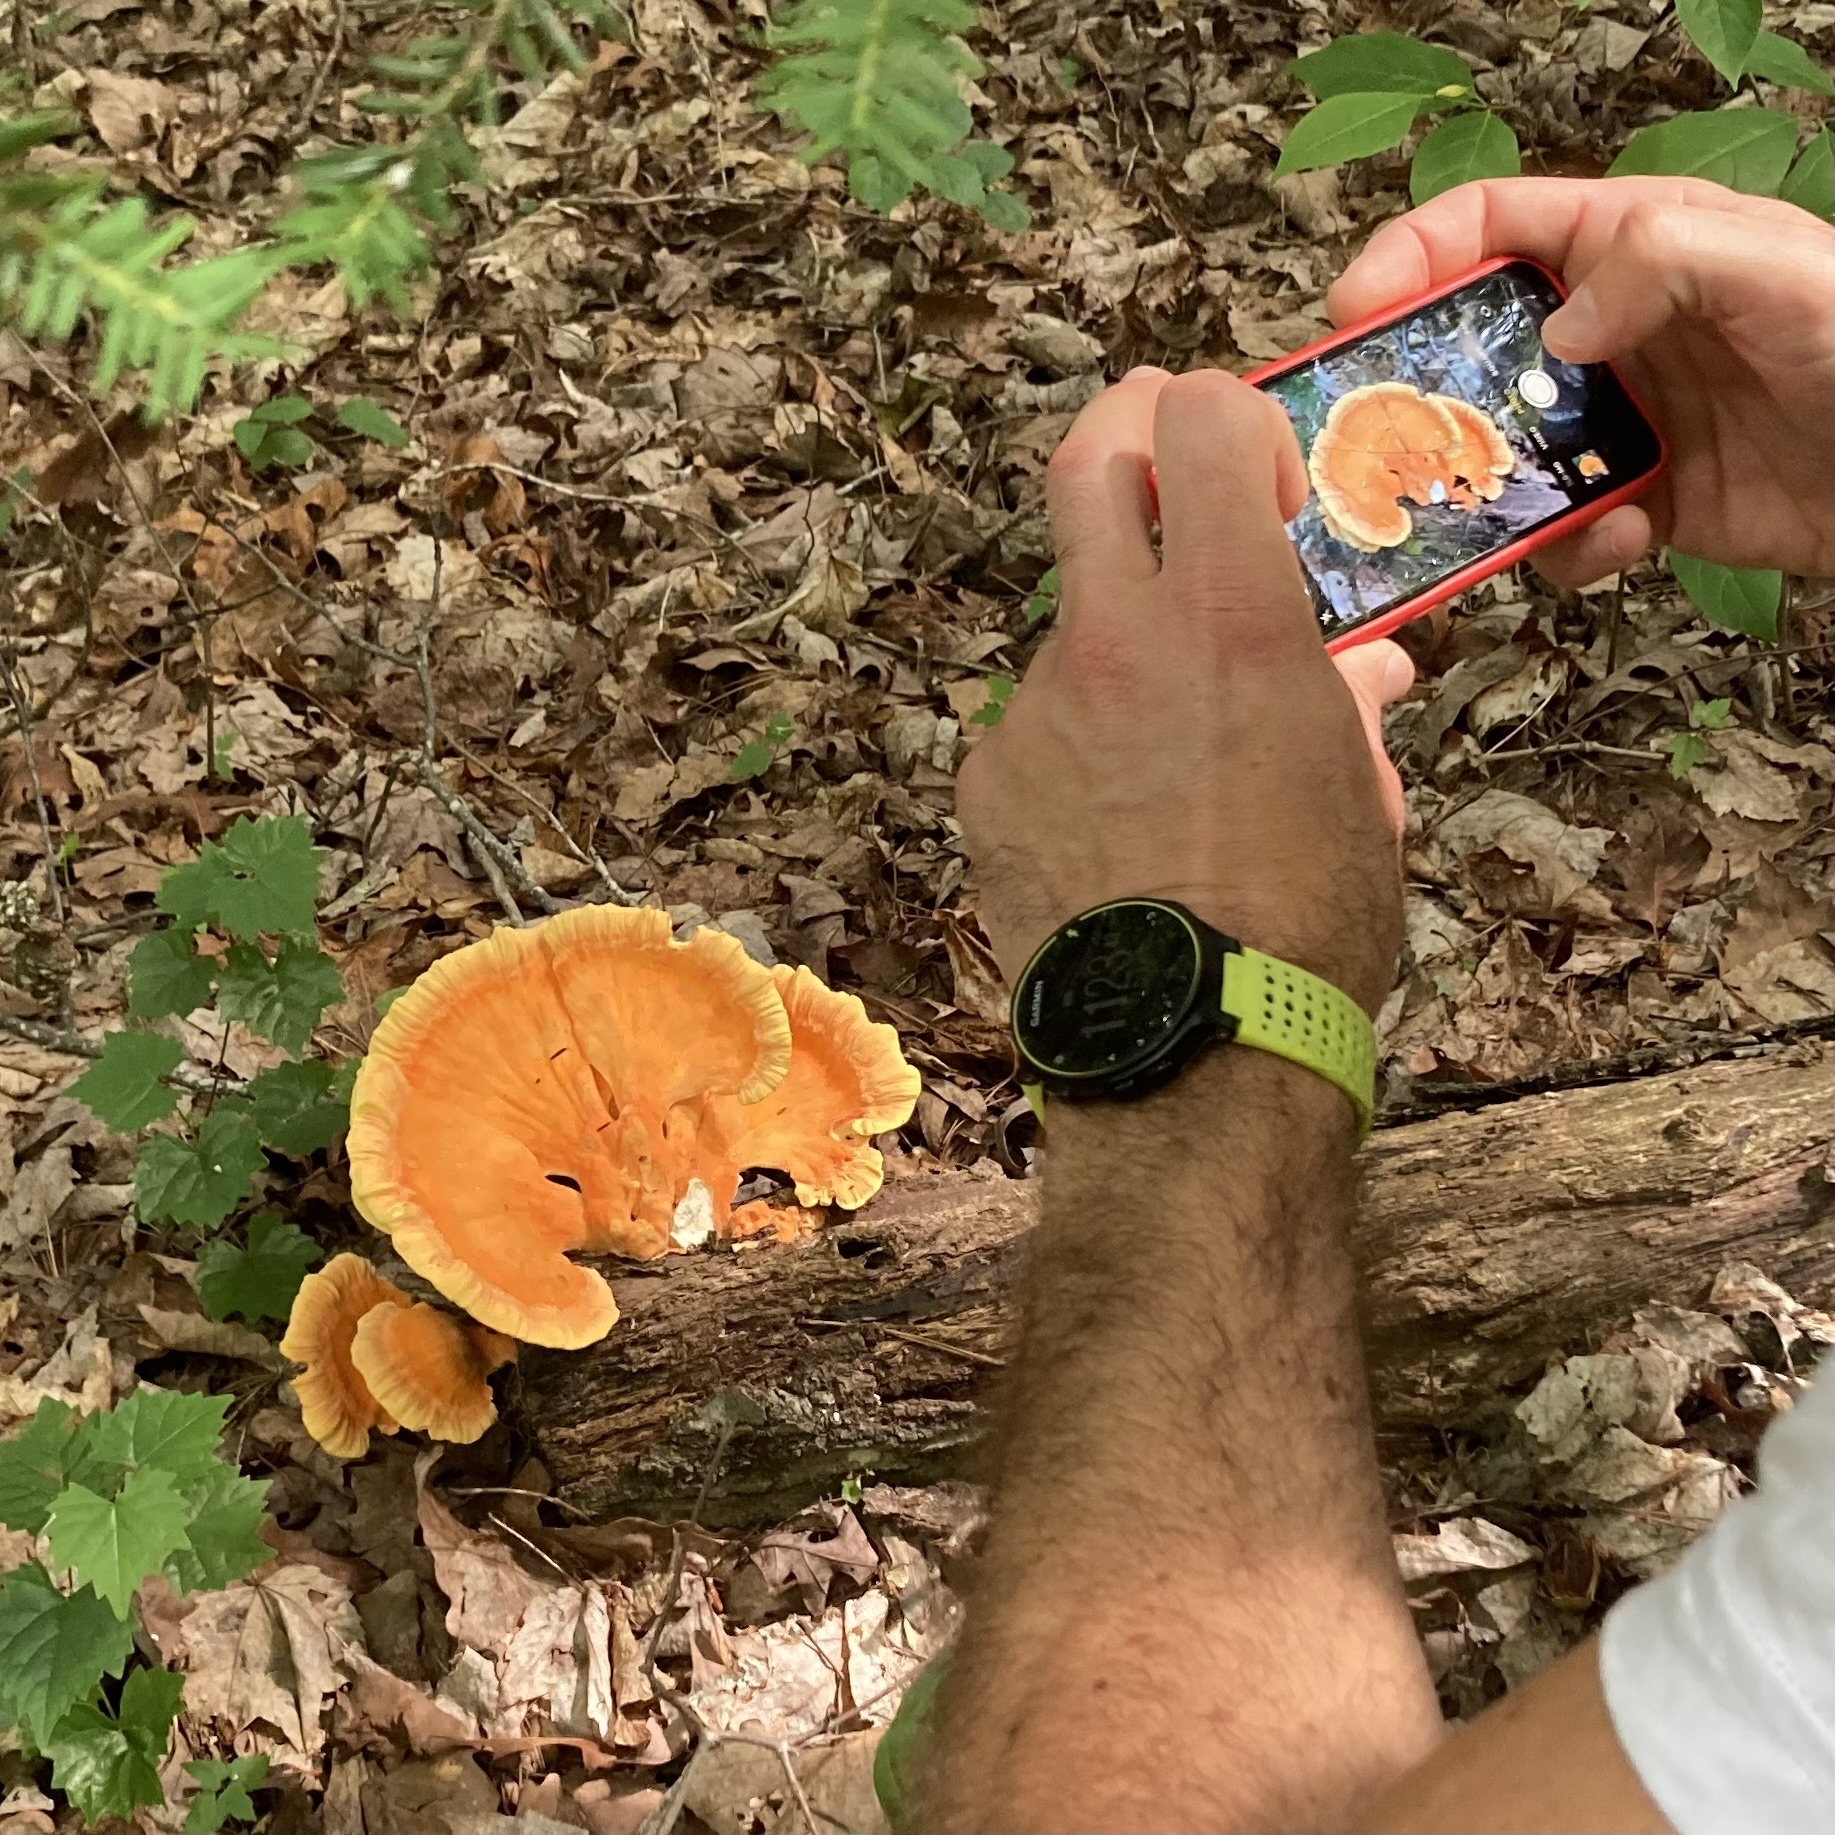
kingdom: Fungi
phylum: Basidiomycota
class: Agaricomycetes
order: Polyporales
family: Laetiporaceae
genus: Laetiporus
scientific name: Laetiporus sulphureus
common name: Chicken of the woods
